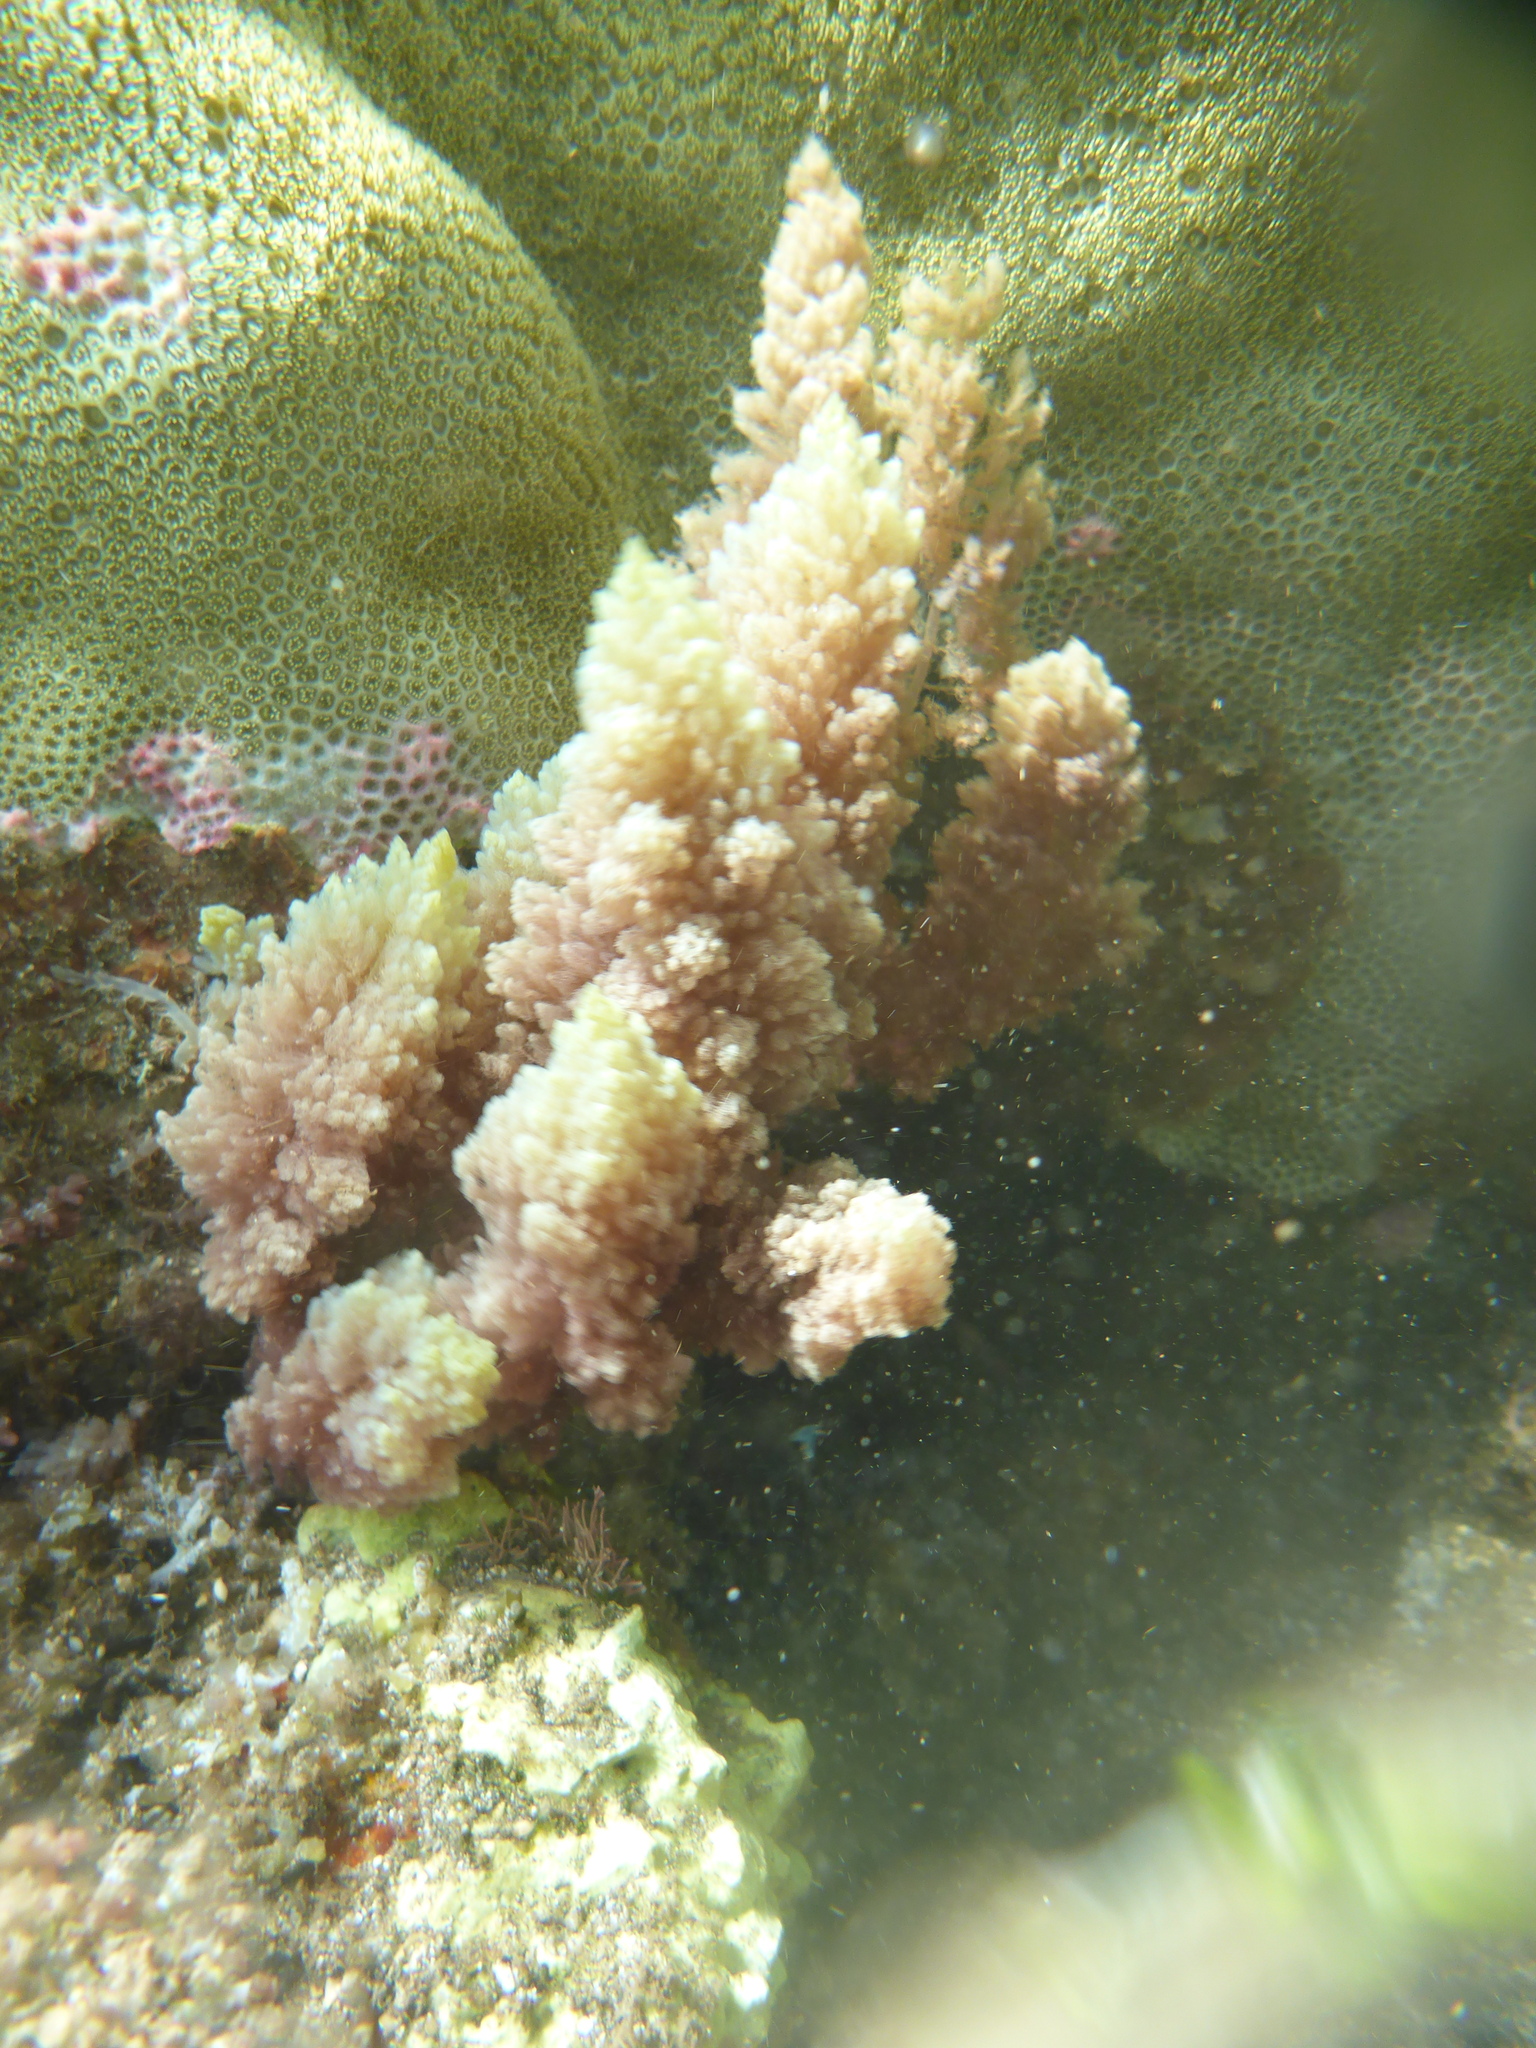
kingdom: Plantae
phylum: Rhodophyta
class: Florideophyceae
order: Bonnemaisoniales
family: Bonnemaisoniaceae
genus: Asparagopsis
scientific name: Asparagopsis taxiformis
